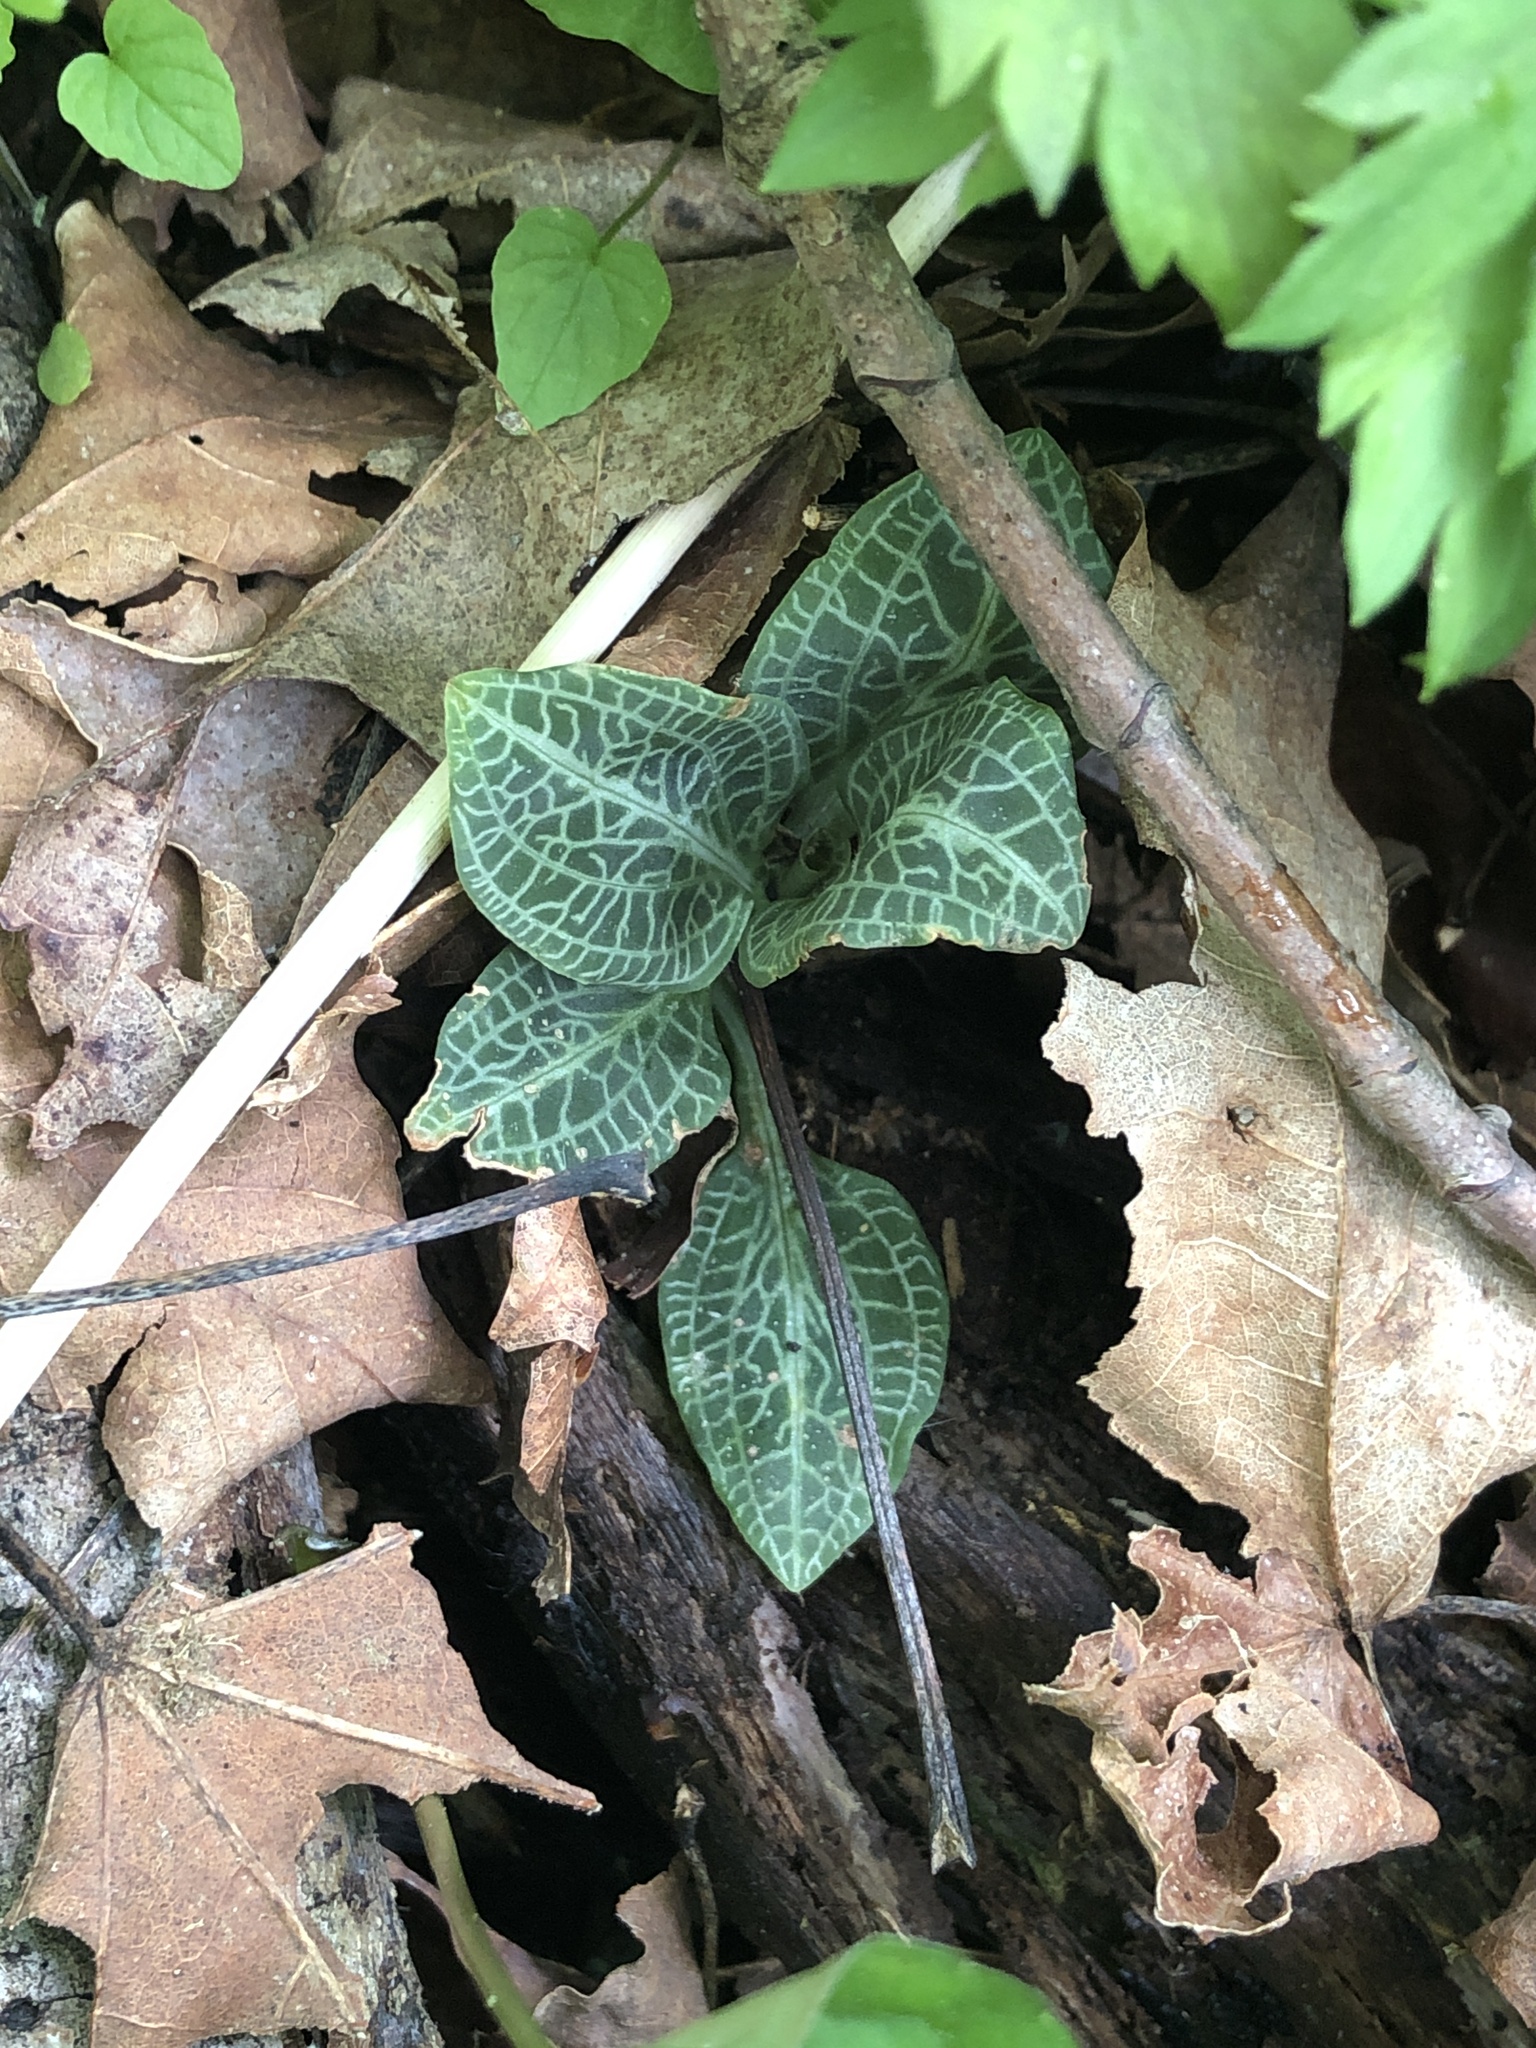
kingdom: Plantae
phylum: Tracheophyta
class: Liliopsida
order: Asparagales
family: Orchidaceae
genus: Goodyera
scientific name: Goodyera pubescens
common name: Downy rattlesnake-plantain
